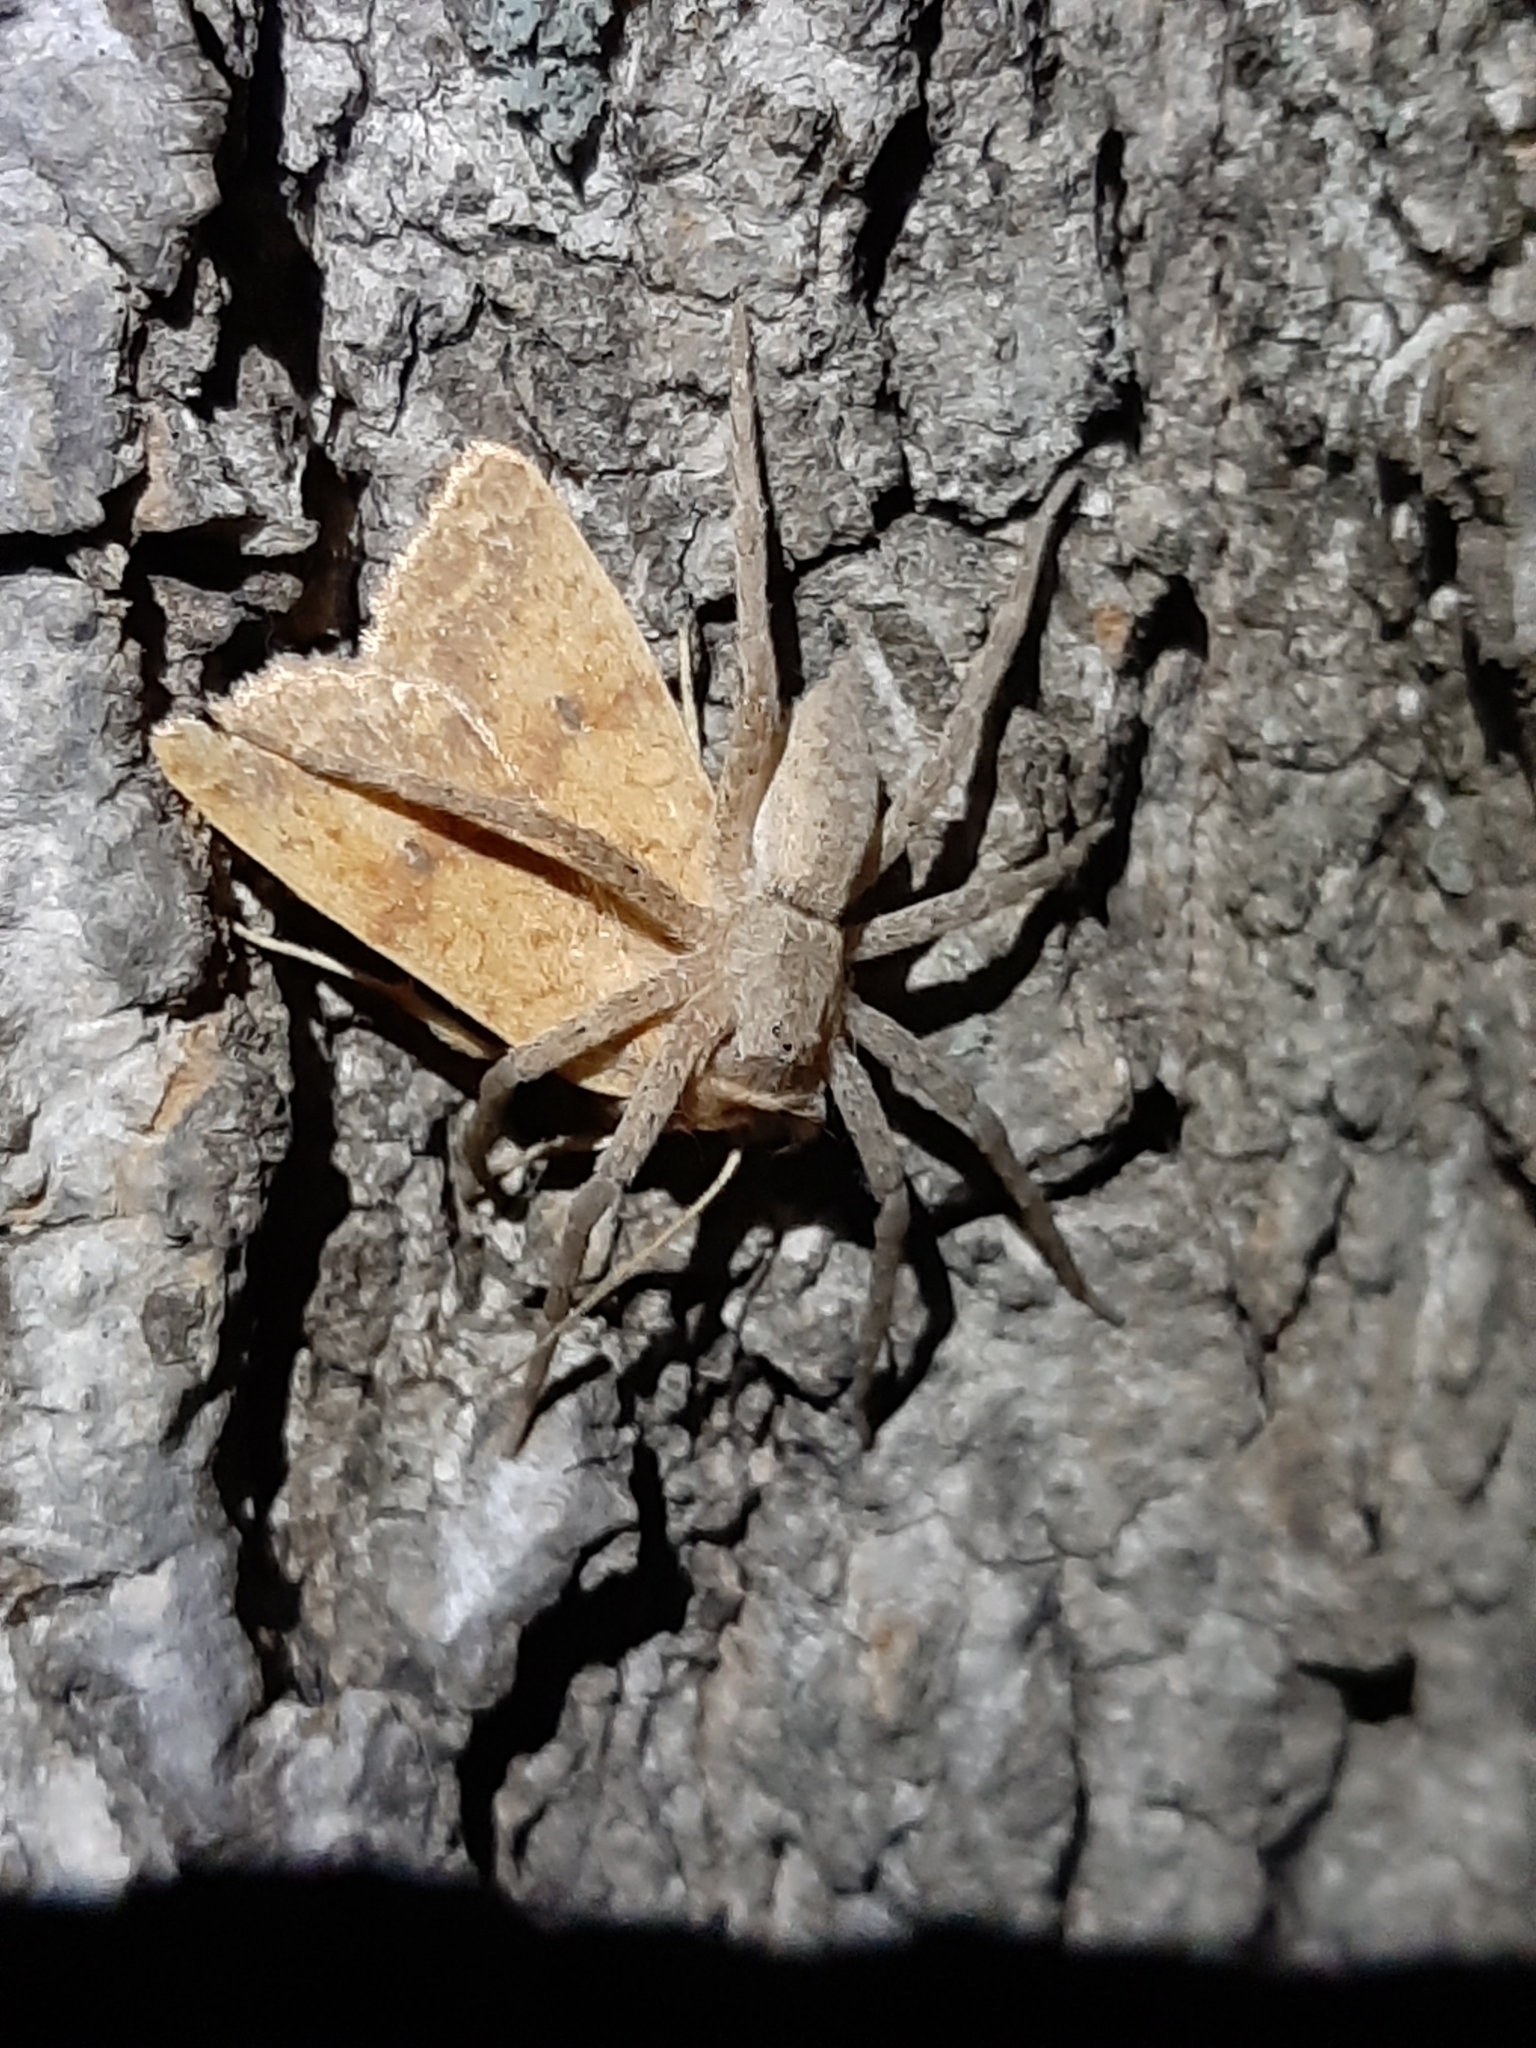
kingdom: Animalia
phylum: Arthropoda
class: Arachnida
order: Araneae
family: Pisauridae
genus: Pisaurina
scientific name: Pisaurina mira
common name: American nursery web spider
